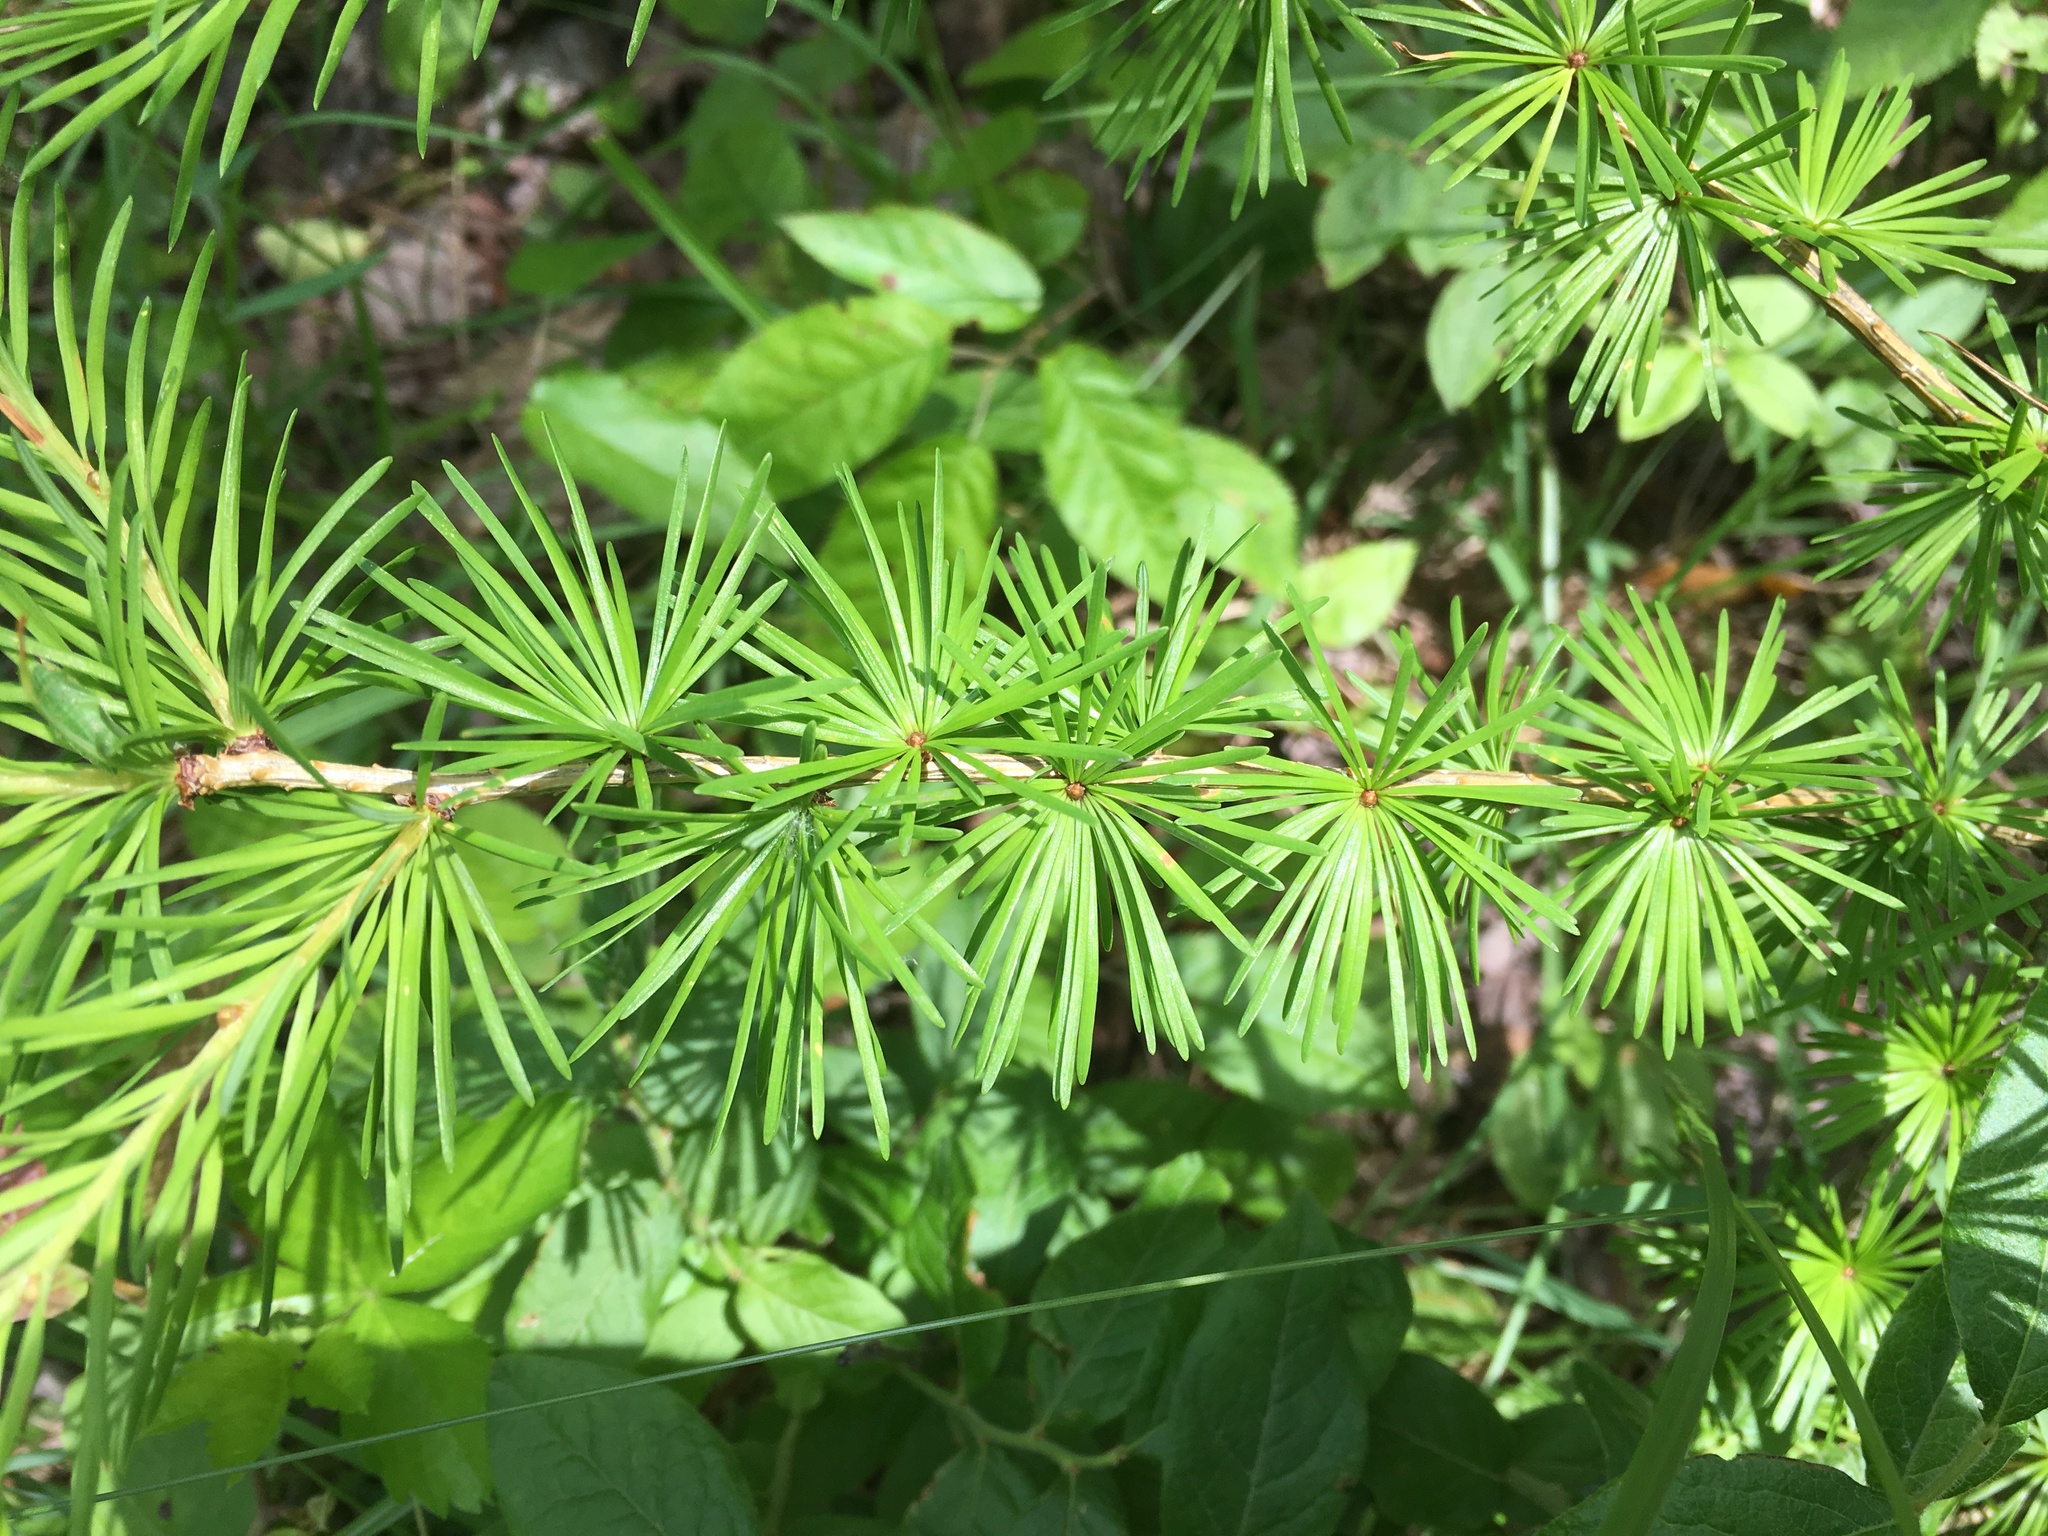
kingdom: Plantae
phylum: Tracheophyta
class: Pinopsida
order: Pinales
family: Pinaceae
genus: Larix
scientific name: Larix laricina
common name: American larch
